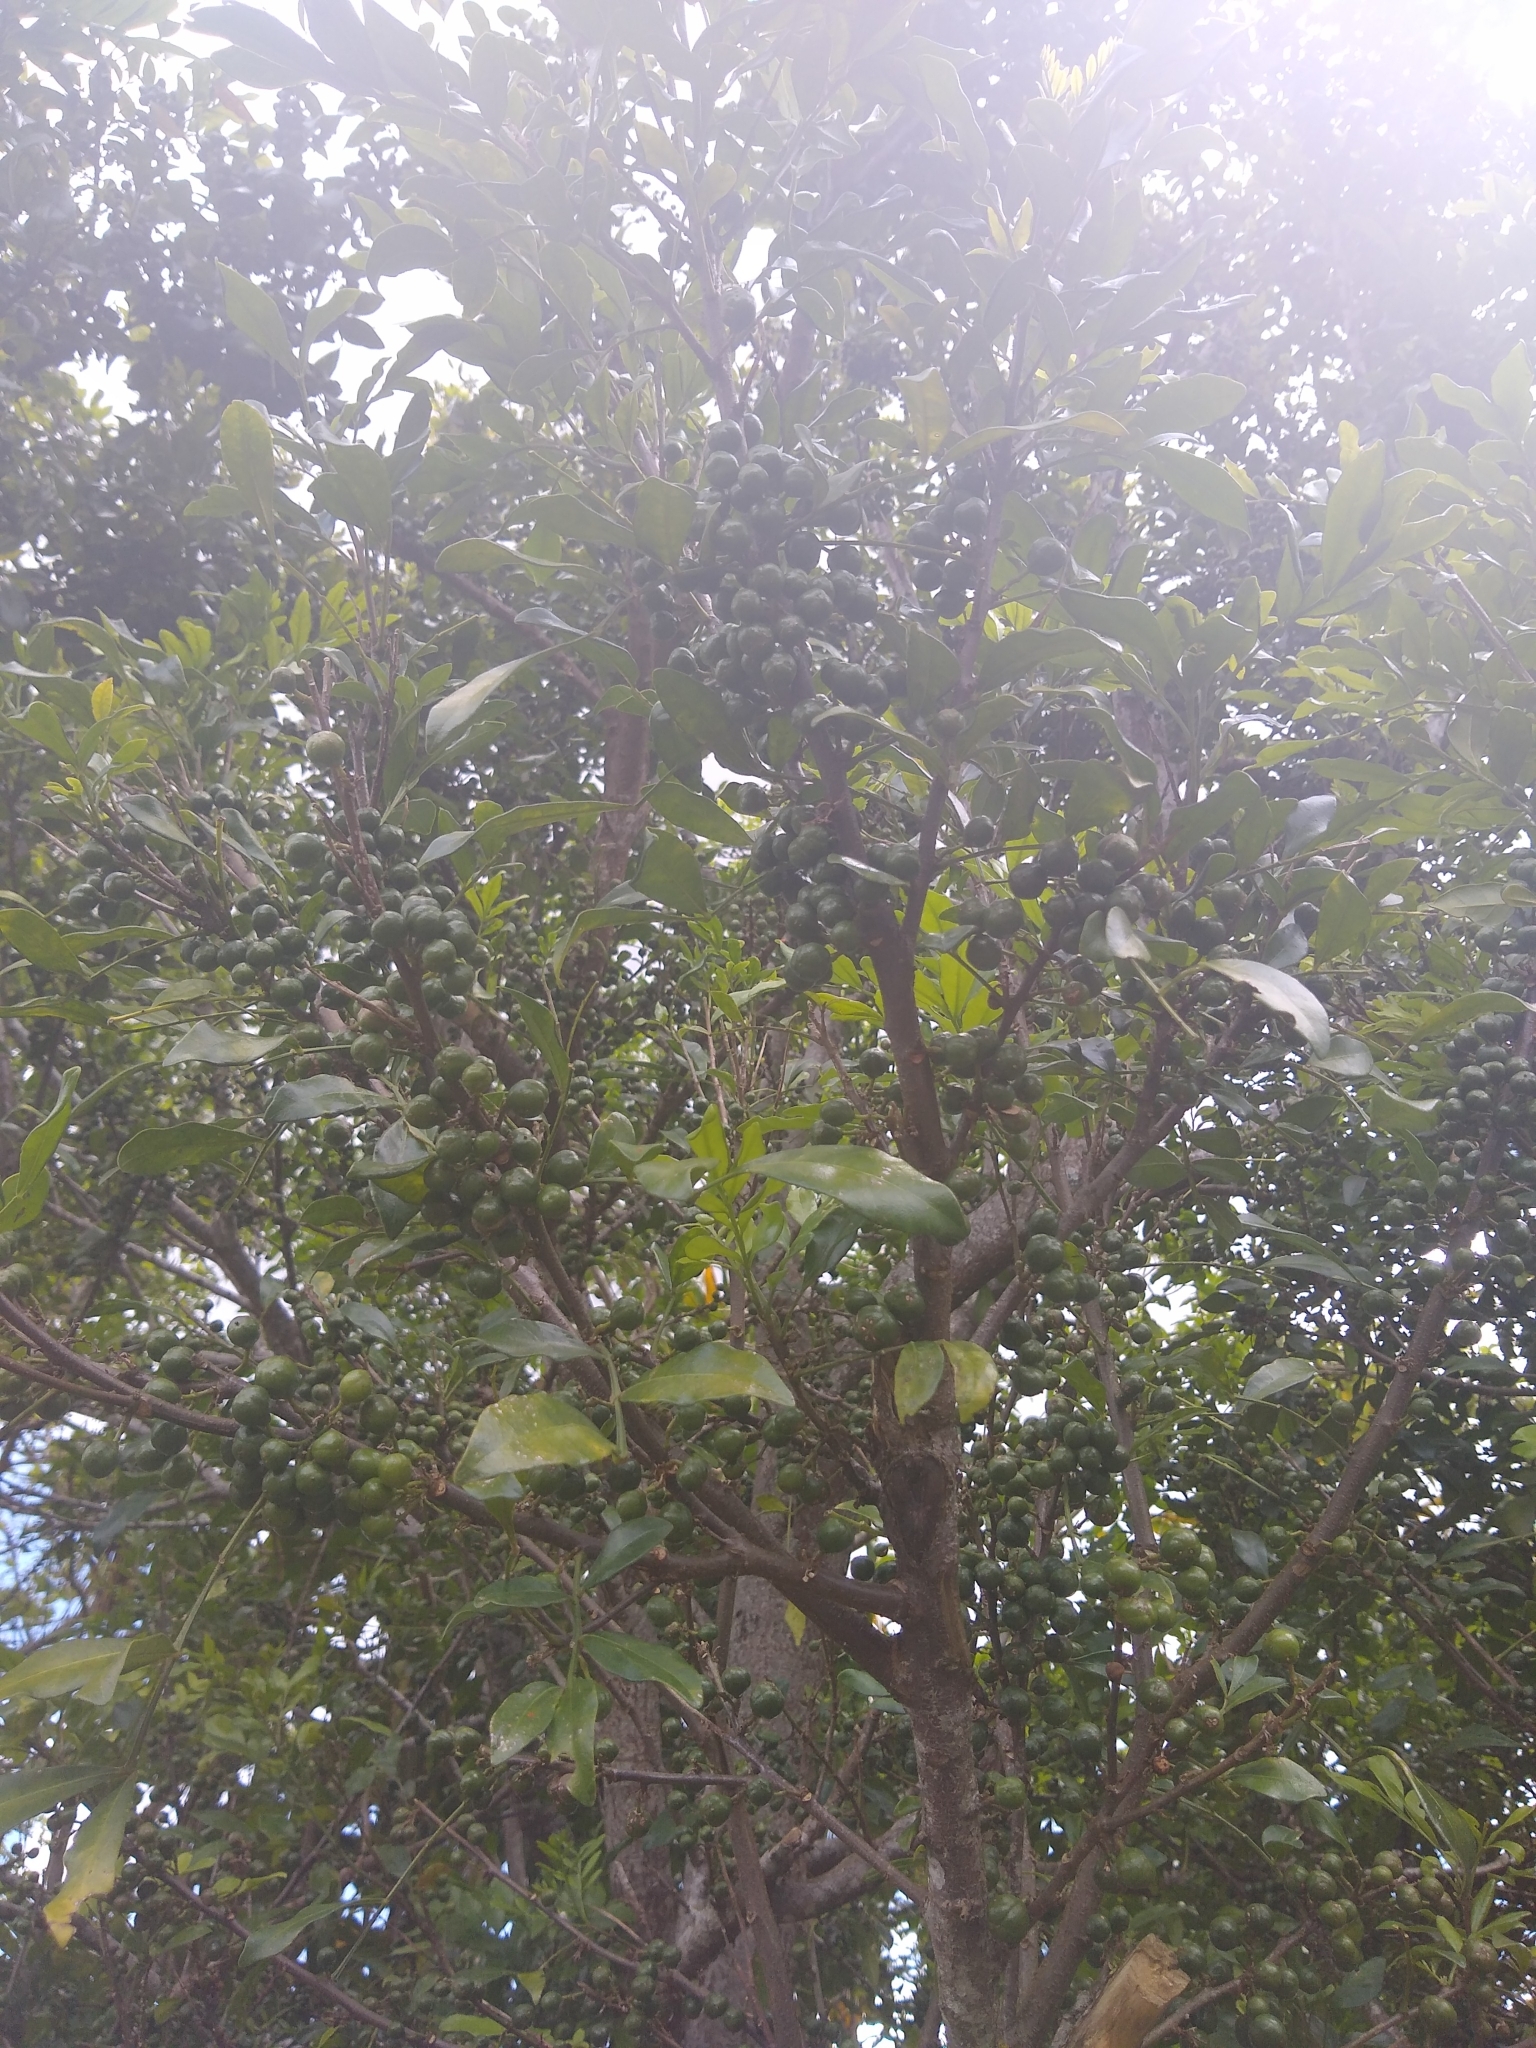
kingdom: Plantae
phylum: Tracheophyta
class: Magnoliopsida
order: Sapindales
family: Meliaceae
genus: Trichilia
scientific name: Trichilia havanensis
